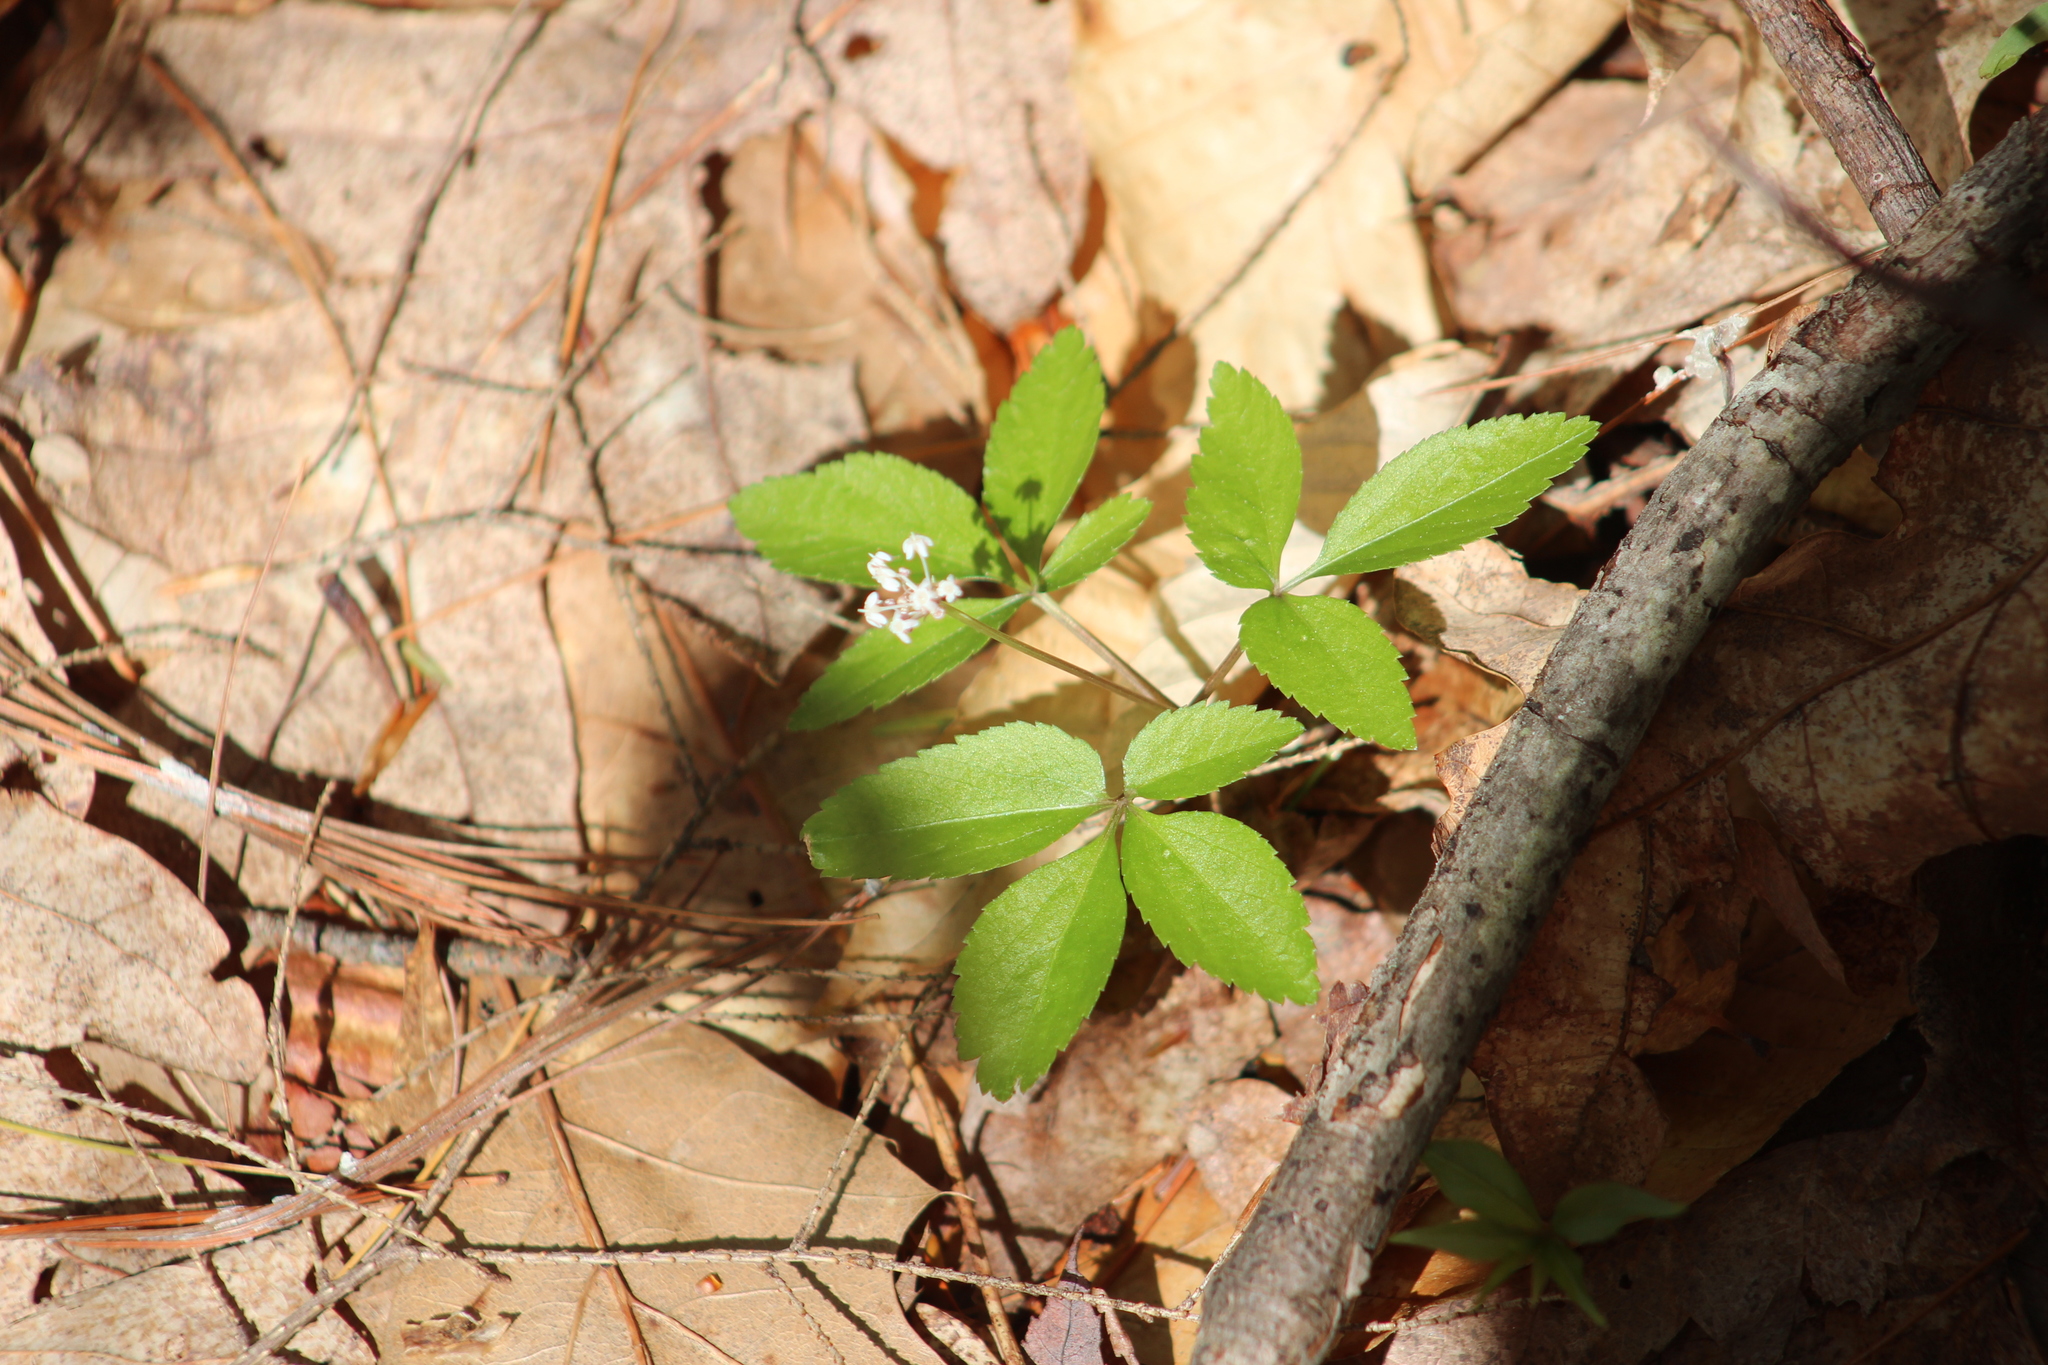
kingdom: Plantae
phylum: Tracheophyta
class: Magnoliopsida
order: Apiales
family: Araliaceae
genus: Panax
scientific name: Panax trifolius
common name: Dwarf ginseng
